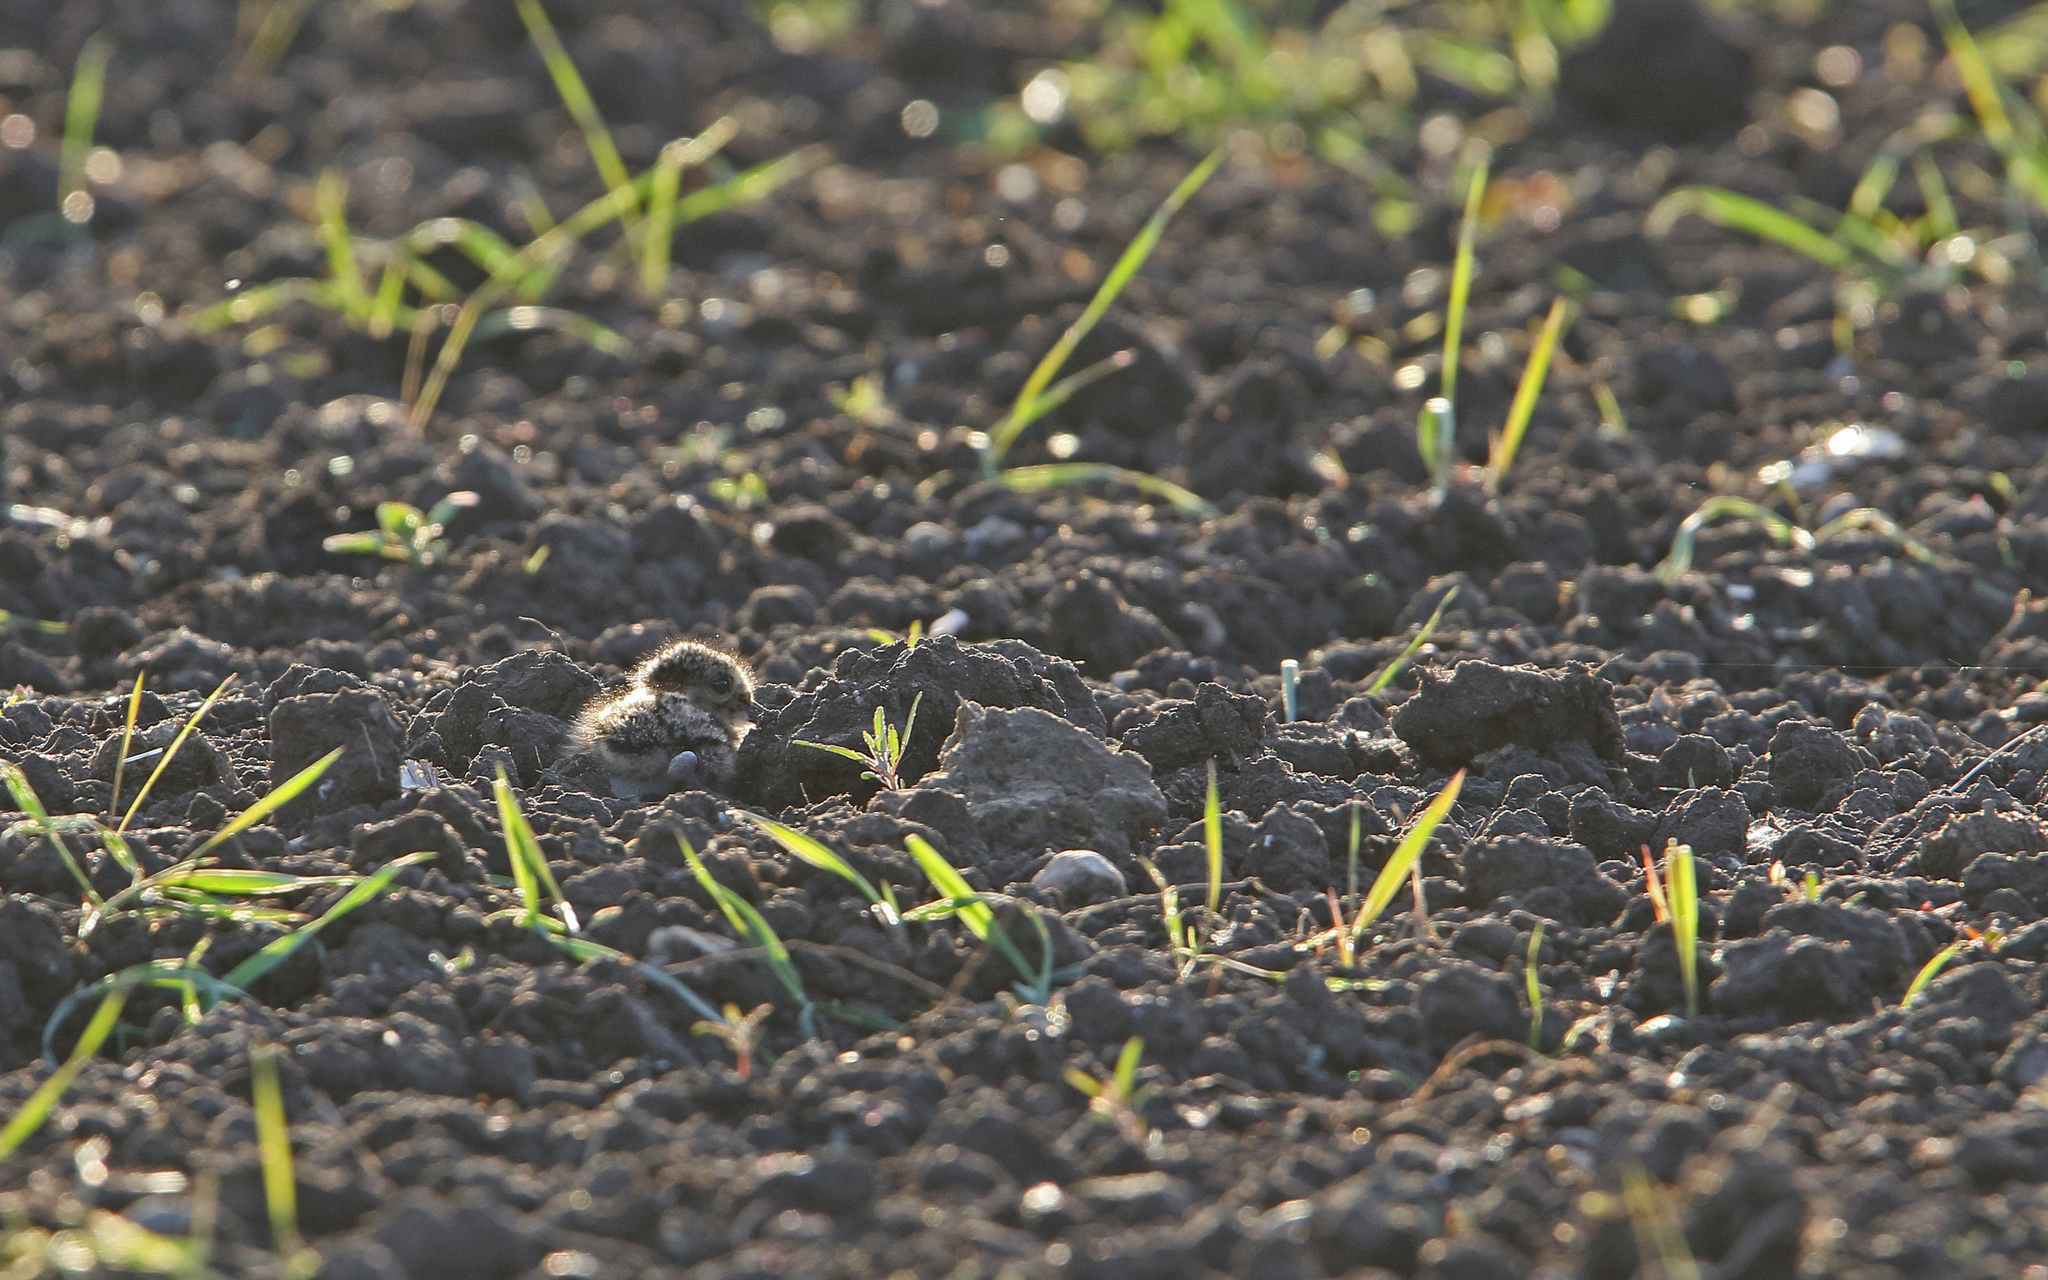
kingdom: Animalia
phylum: Chordata
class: Aves
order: Charadriiformes
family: Charadriidae
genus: Vanellus
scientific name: Vanellus vanellus
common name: Northern lapwing
